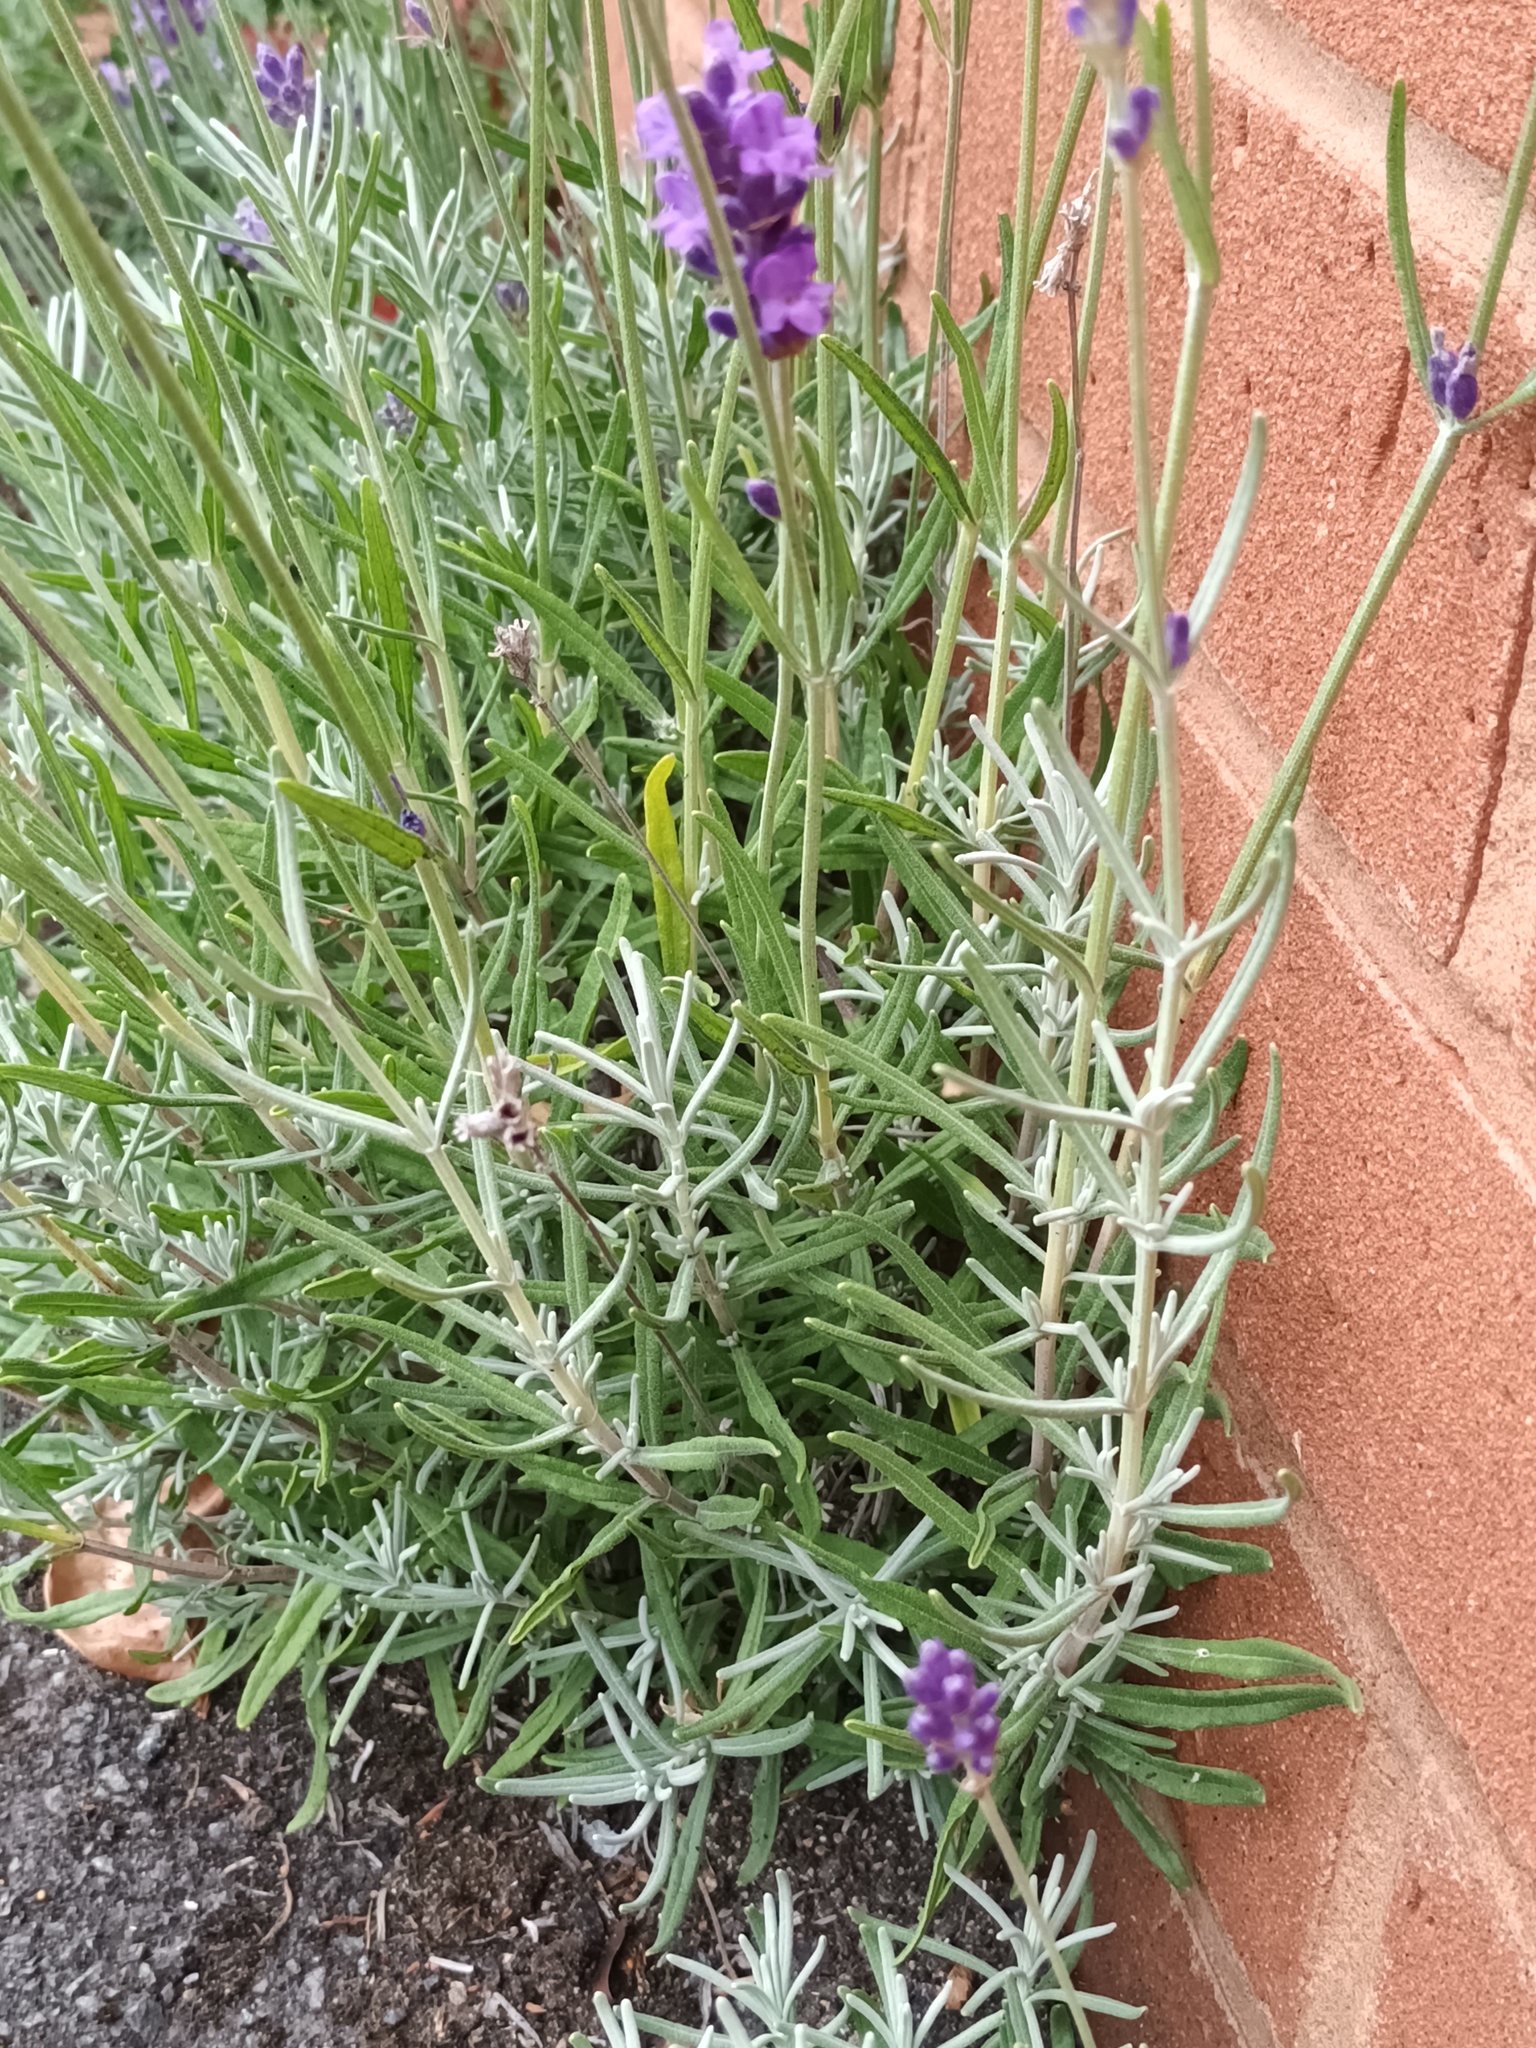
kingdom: Plantae
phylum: Tracheophyta
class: Magnoliopsida
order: Lamiales
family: Lamiaceae
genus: Lavandula
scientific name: Lavandula angustifolia
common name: Garden lavender
